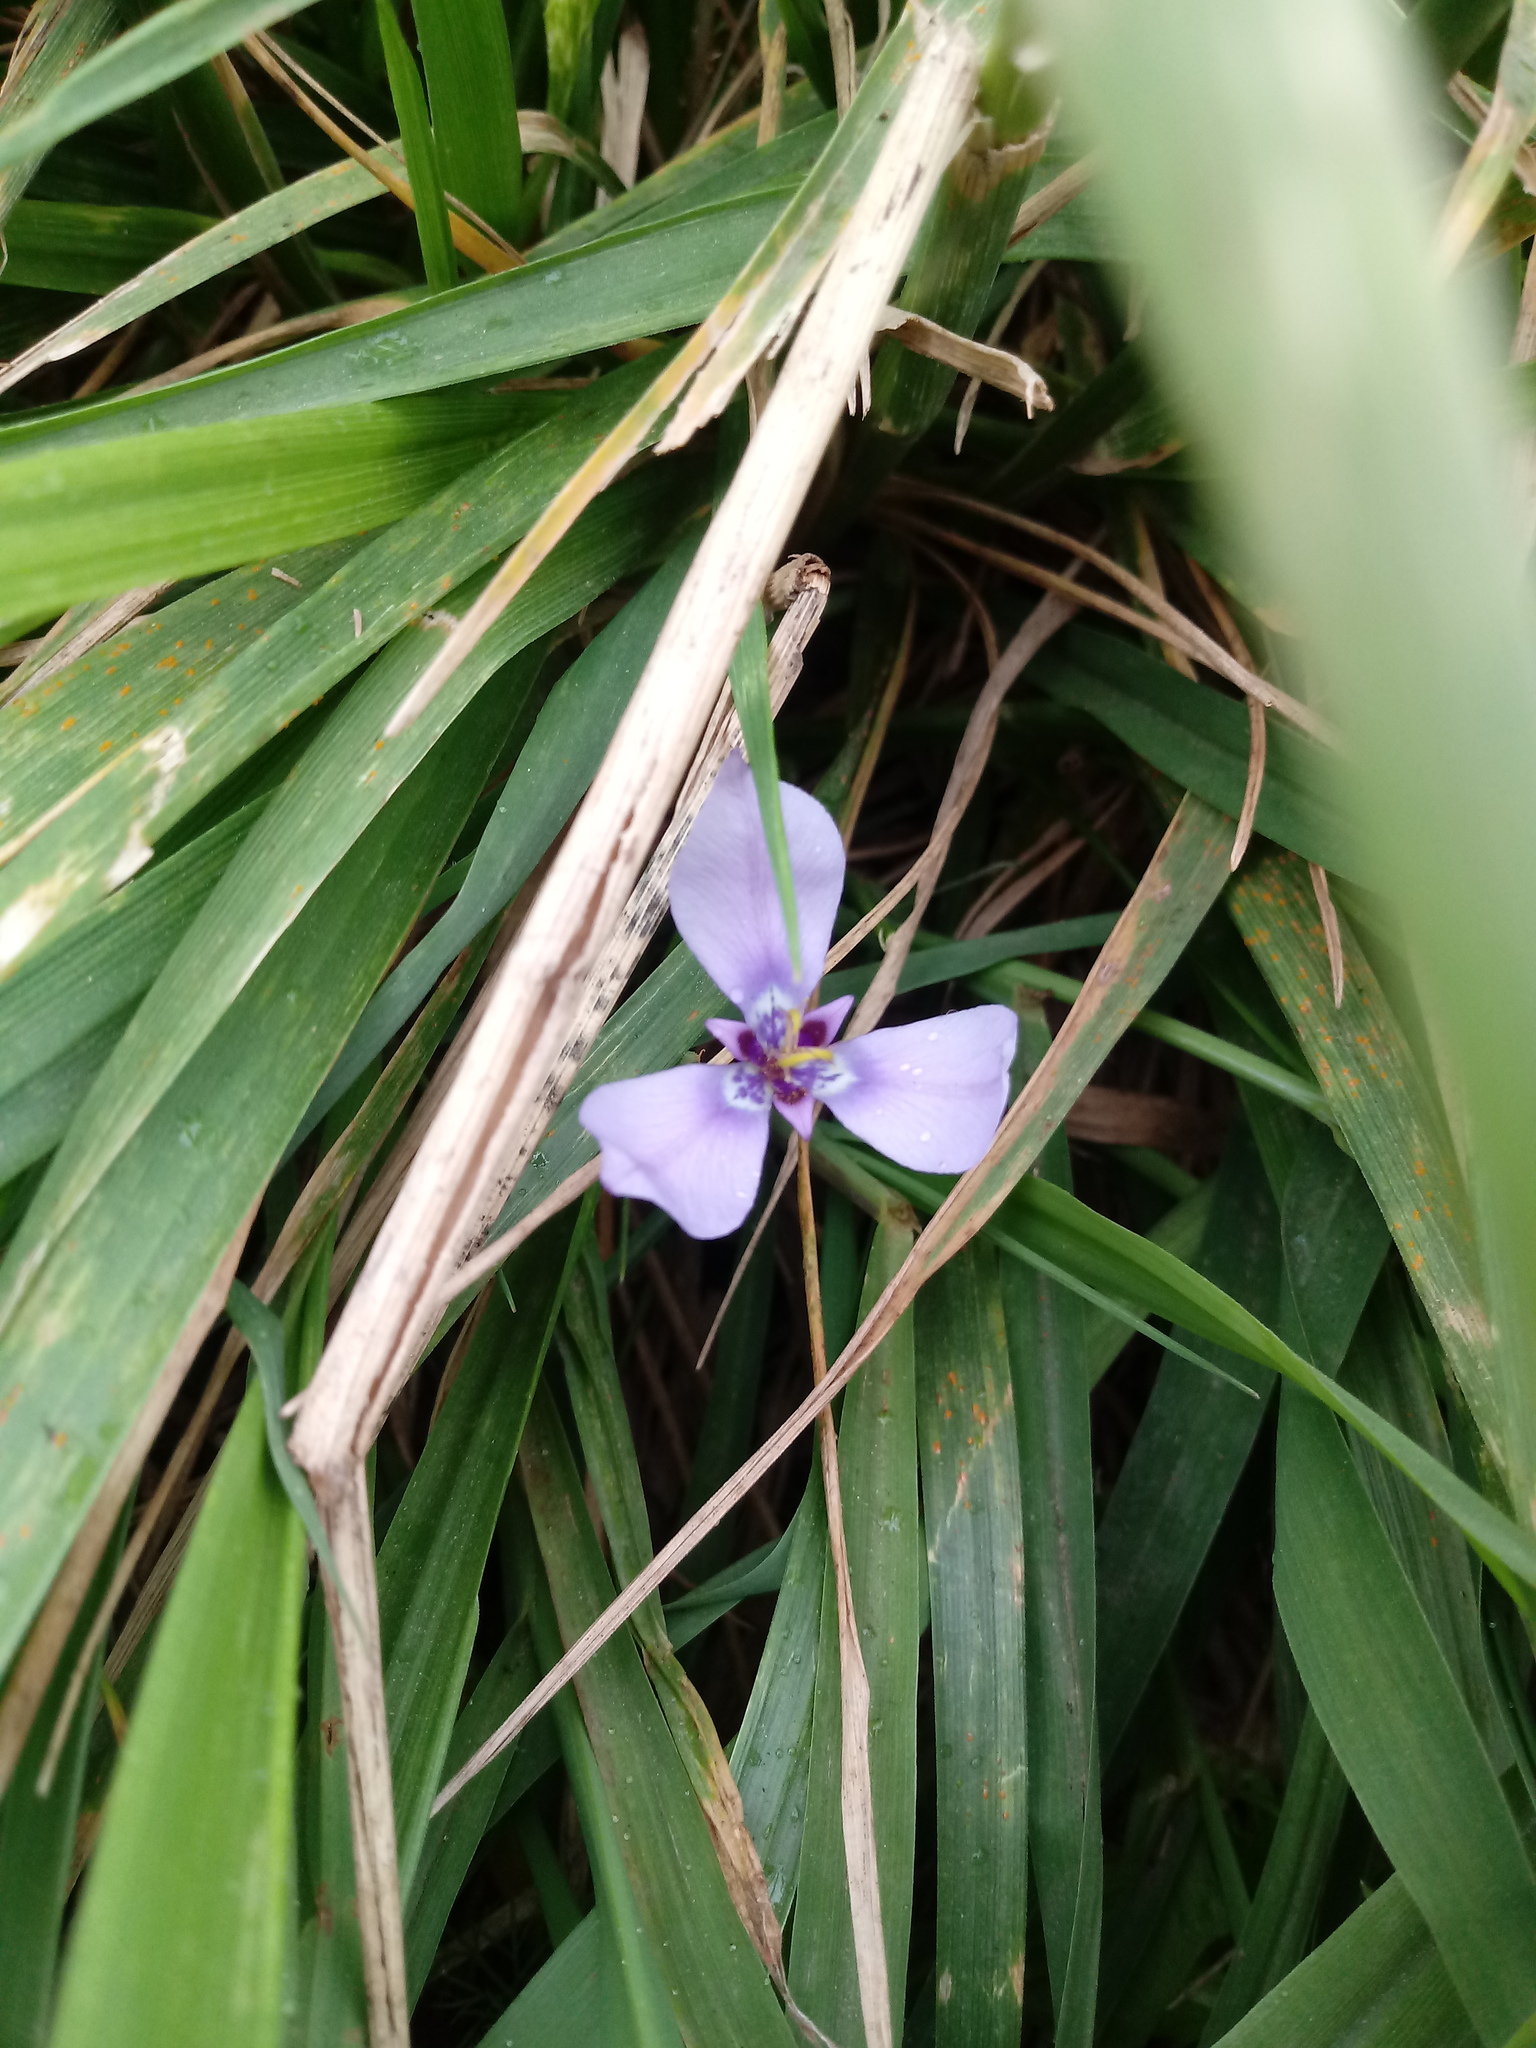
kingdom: Plantae
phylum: Tracheophyta
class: Liliopsida
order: Asparagales
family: Iridaceae
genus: Herbertia
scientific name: Herbertia lahue
